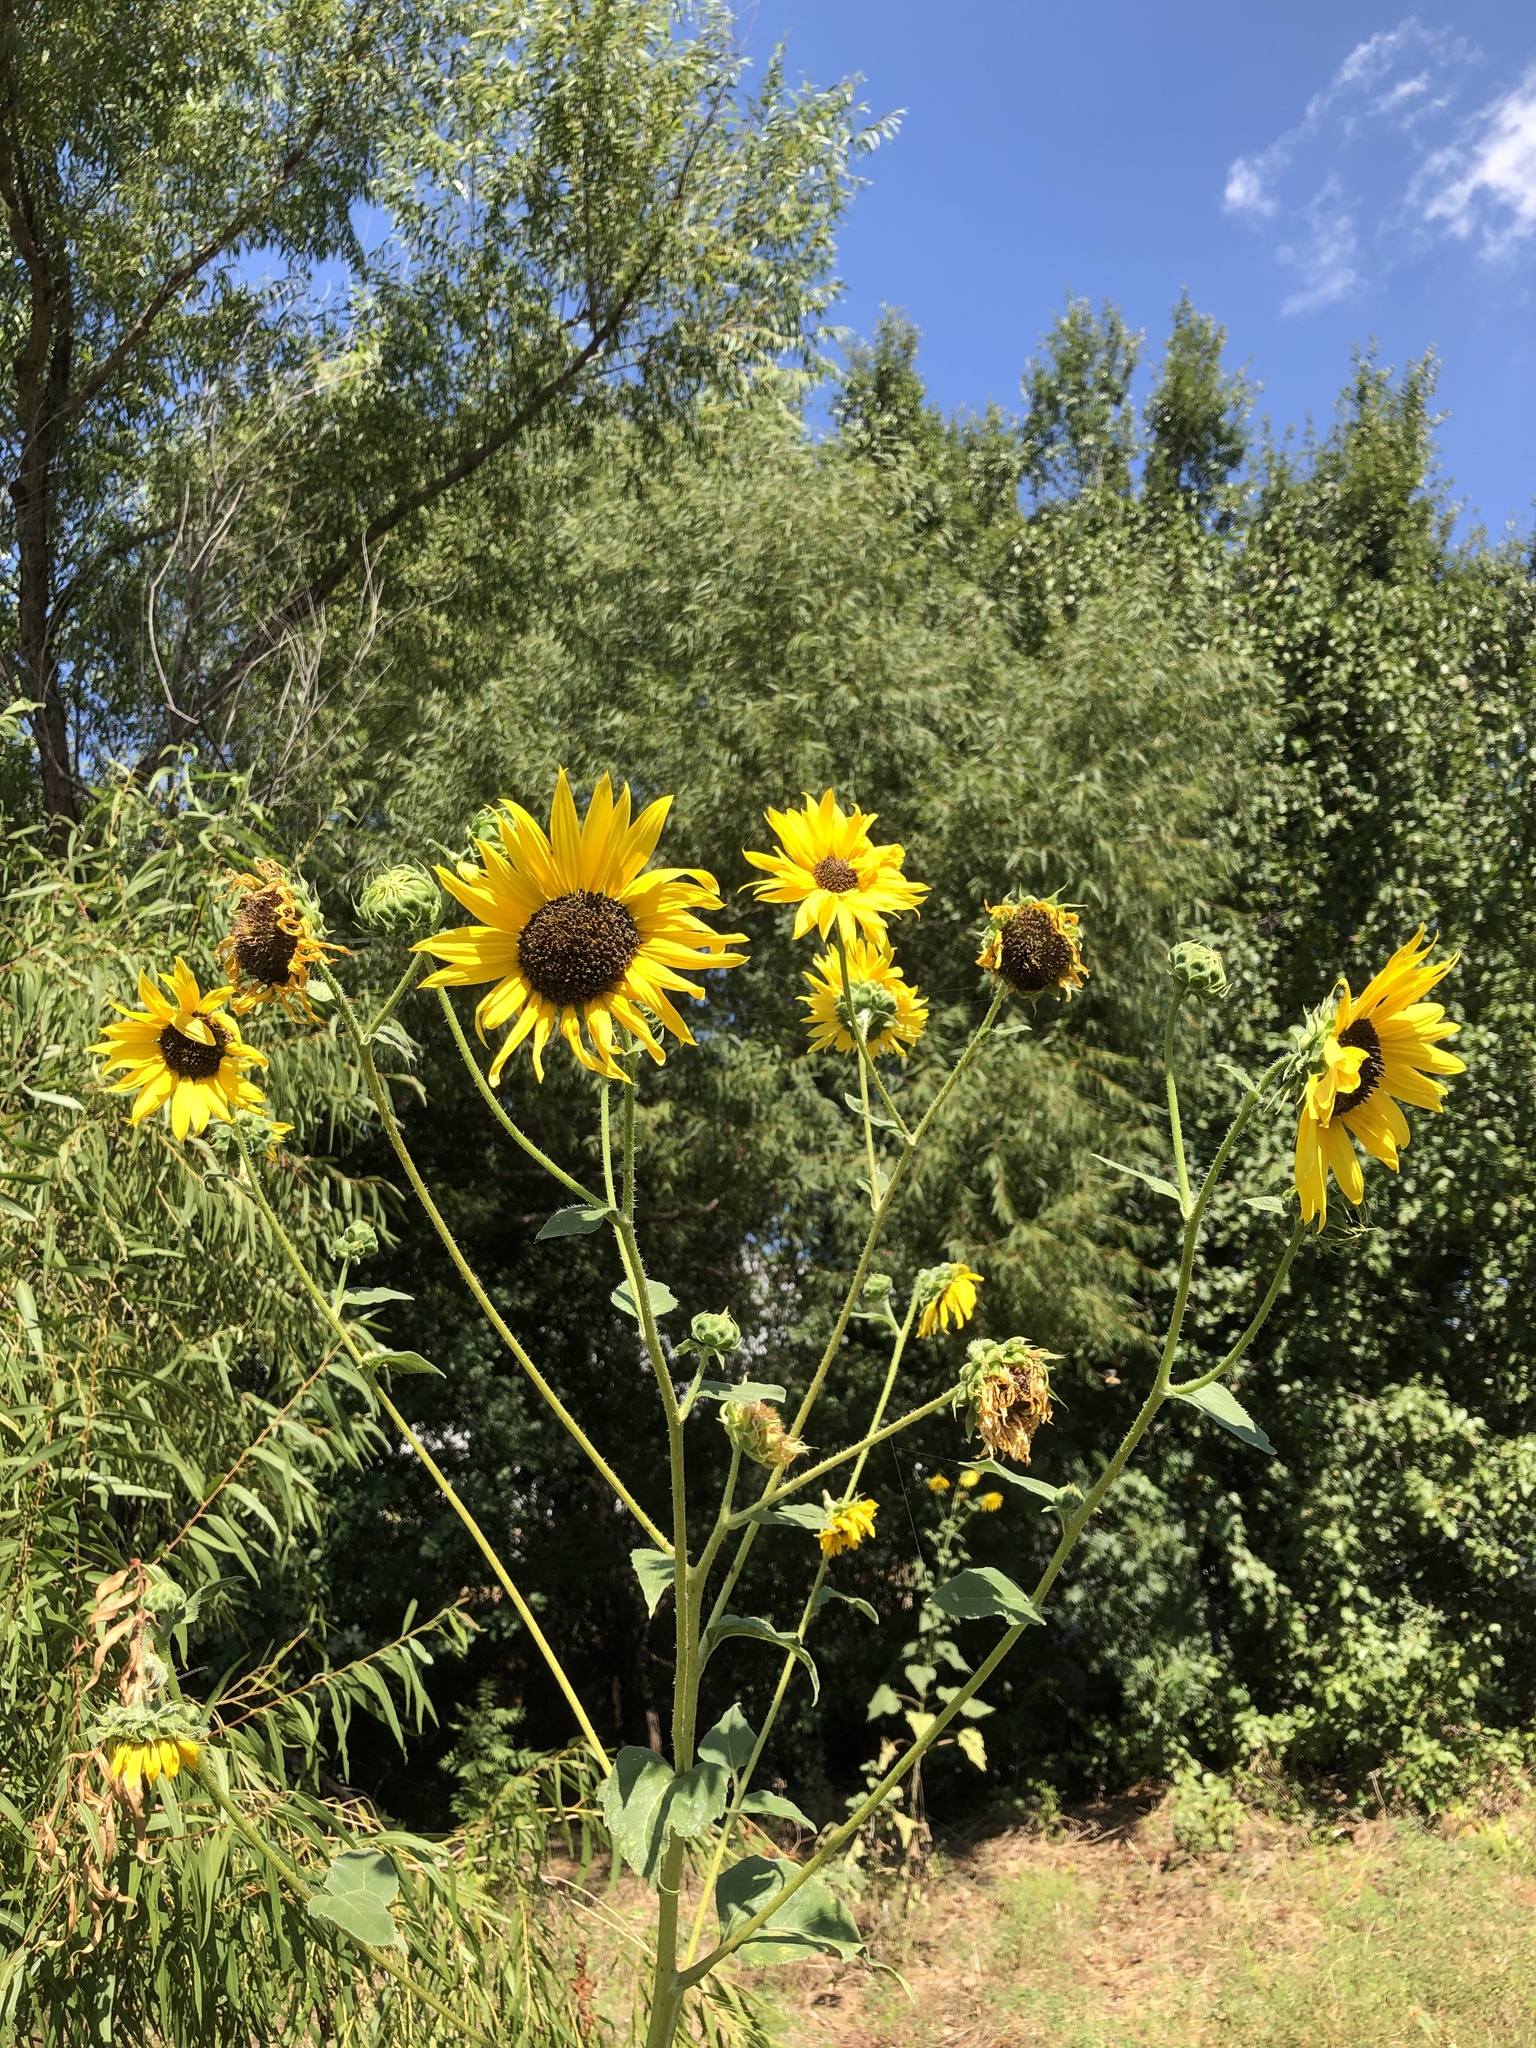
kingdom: Plantae
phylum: Tracheophyta
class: Magnoliopsida
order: Asterales
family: Asteraceae
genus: Helianthus
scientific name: Helianthus annuus
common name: Sunflower
